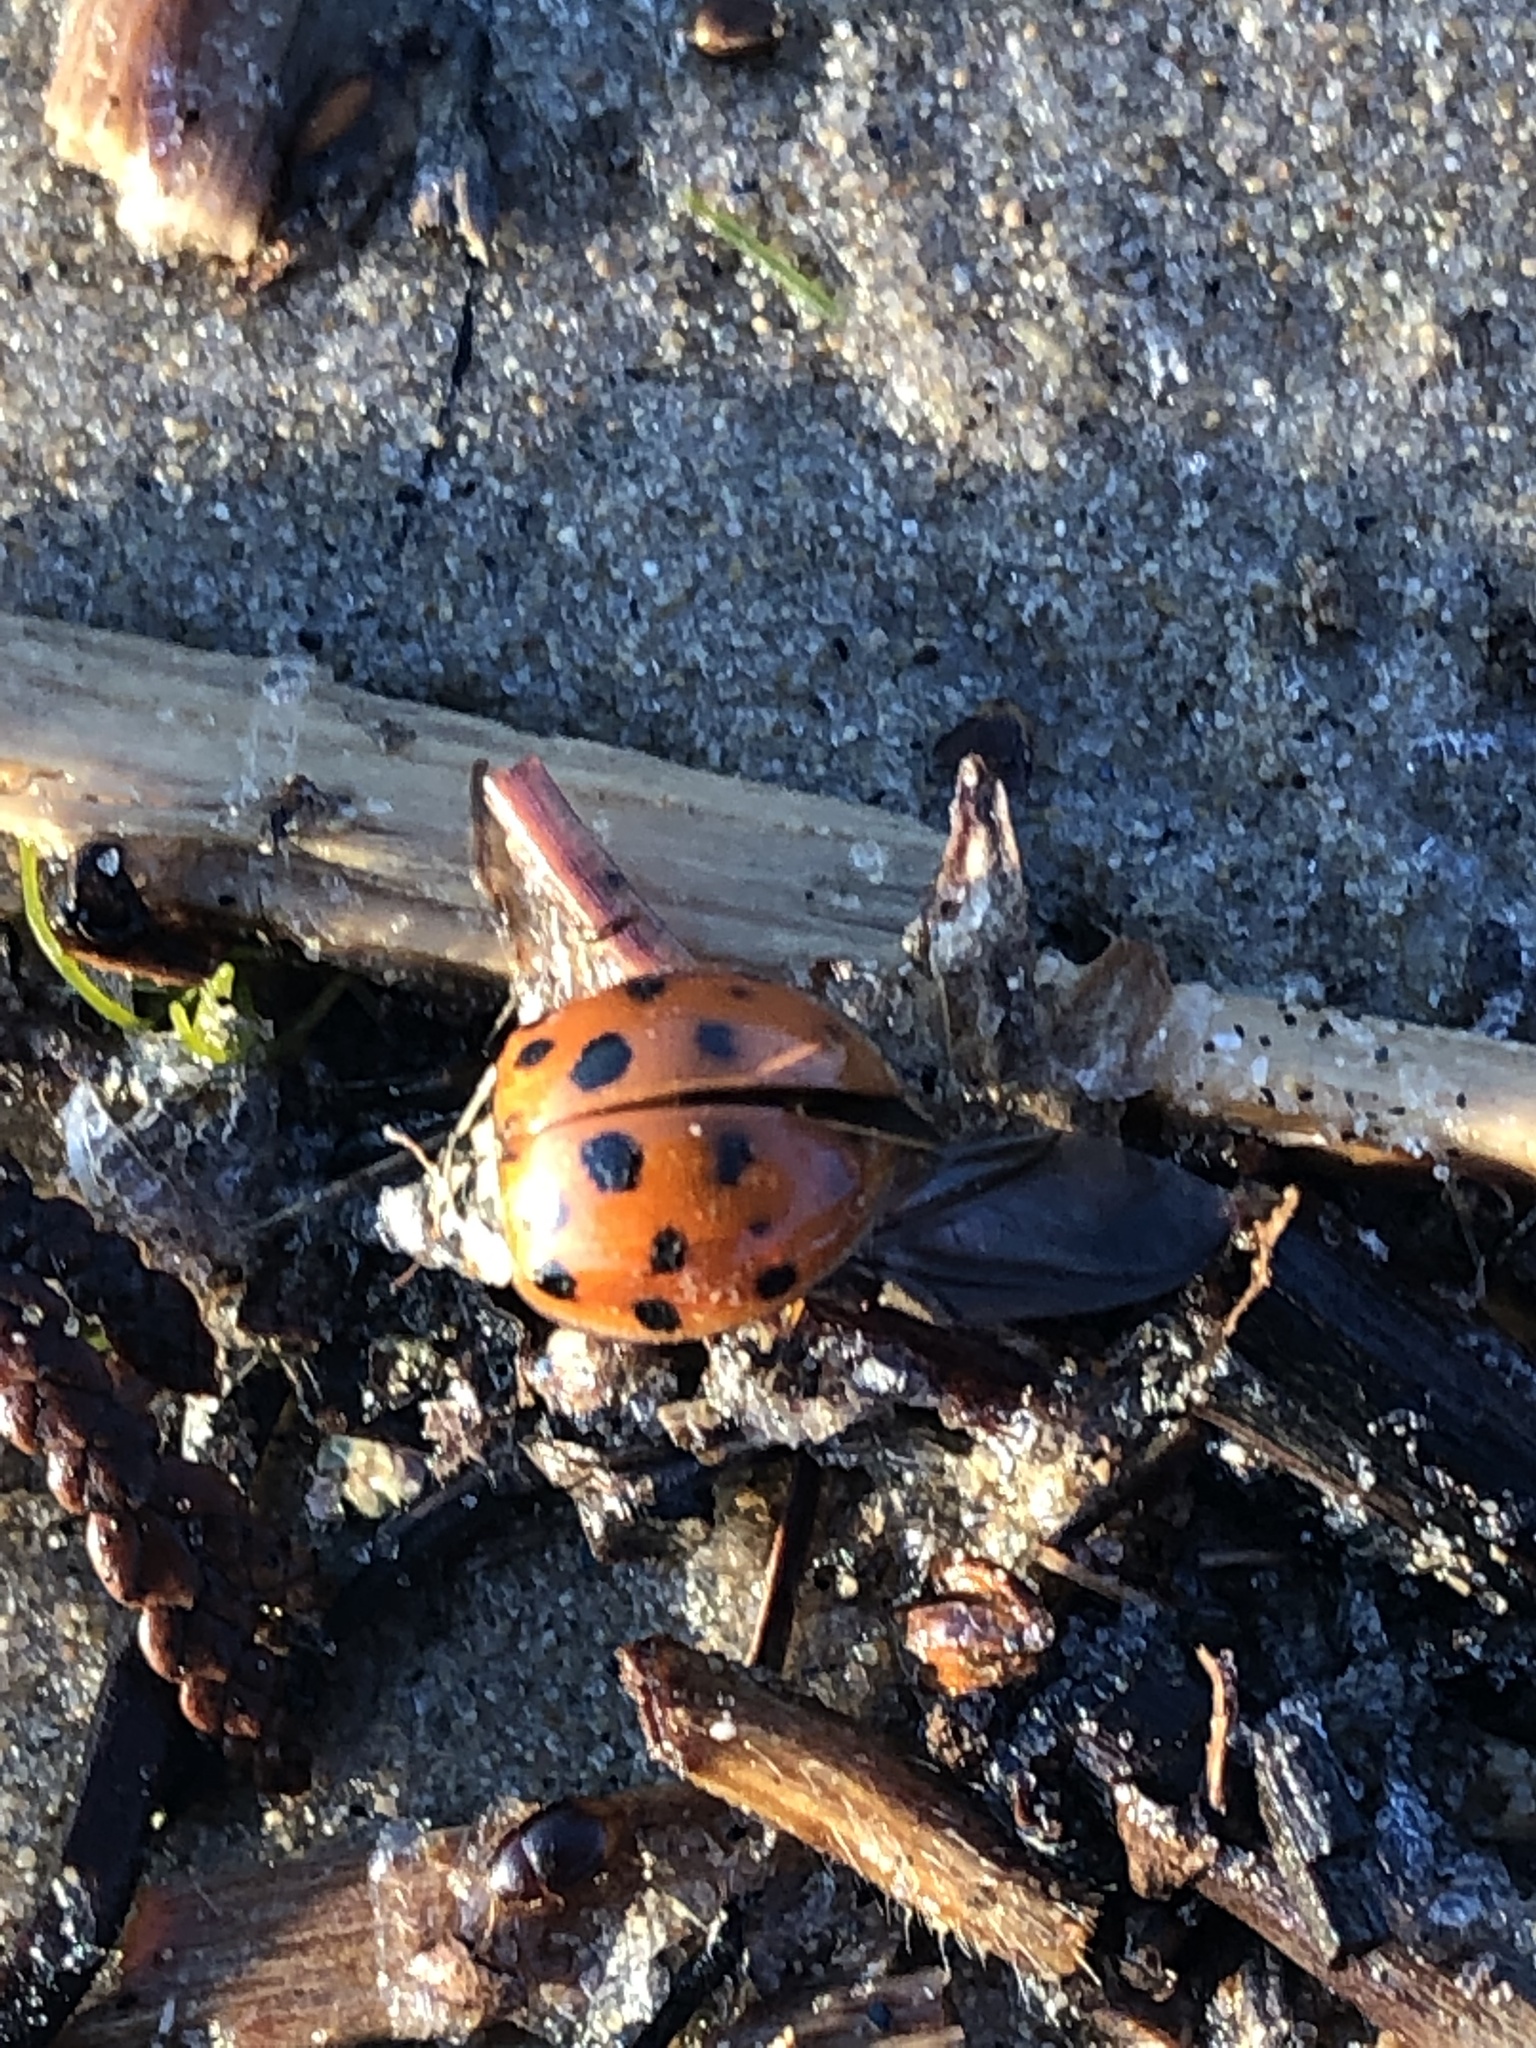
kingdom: Animalia
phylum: Arthropoda
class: Insecta
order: Coleoptera
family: Coccinellidae
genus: Harmonia
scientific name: Harmonia axyridis
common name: Harlequin ladybird
